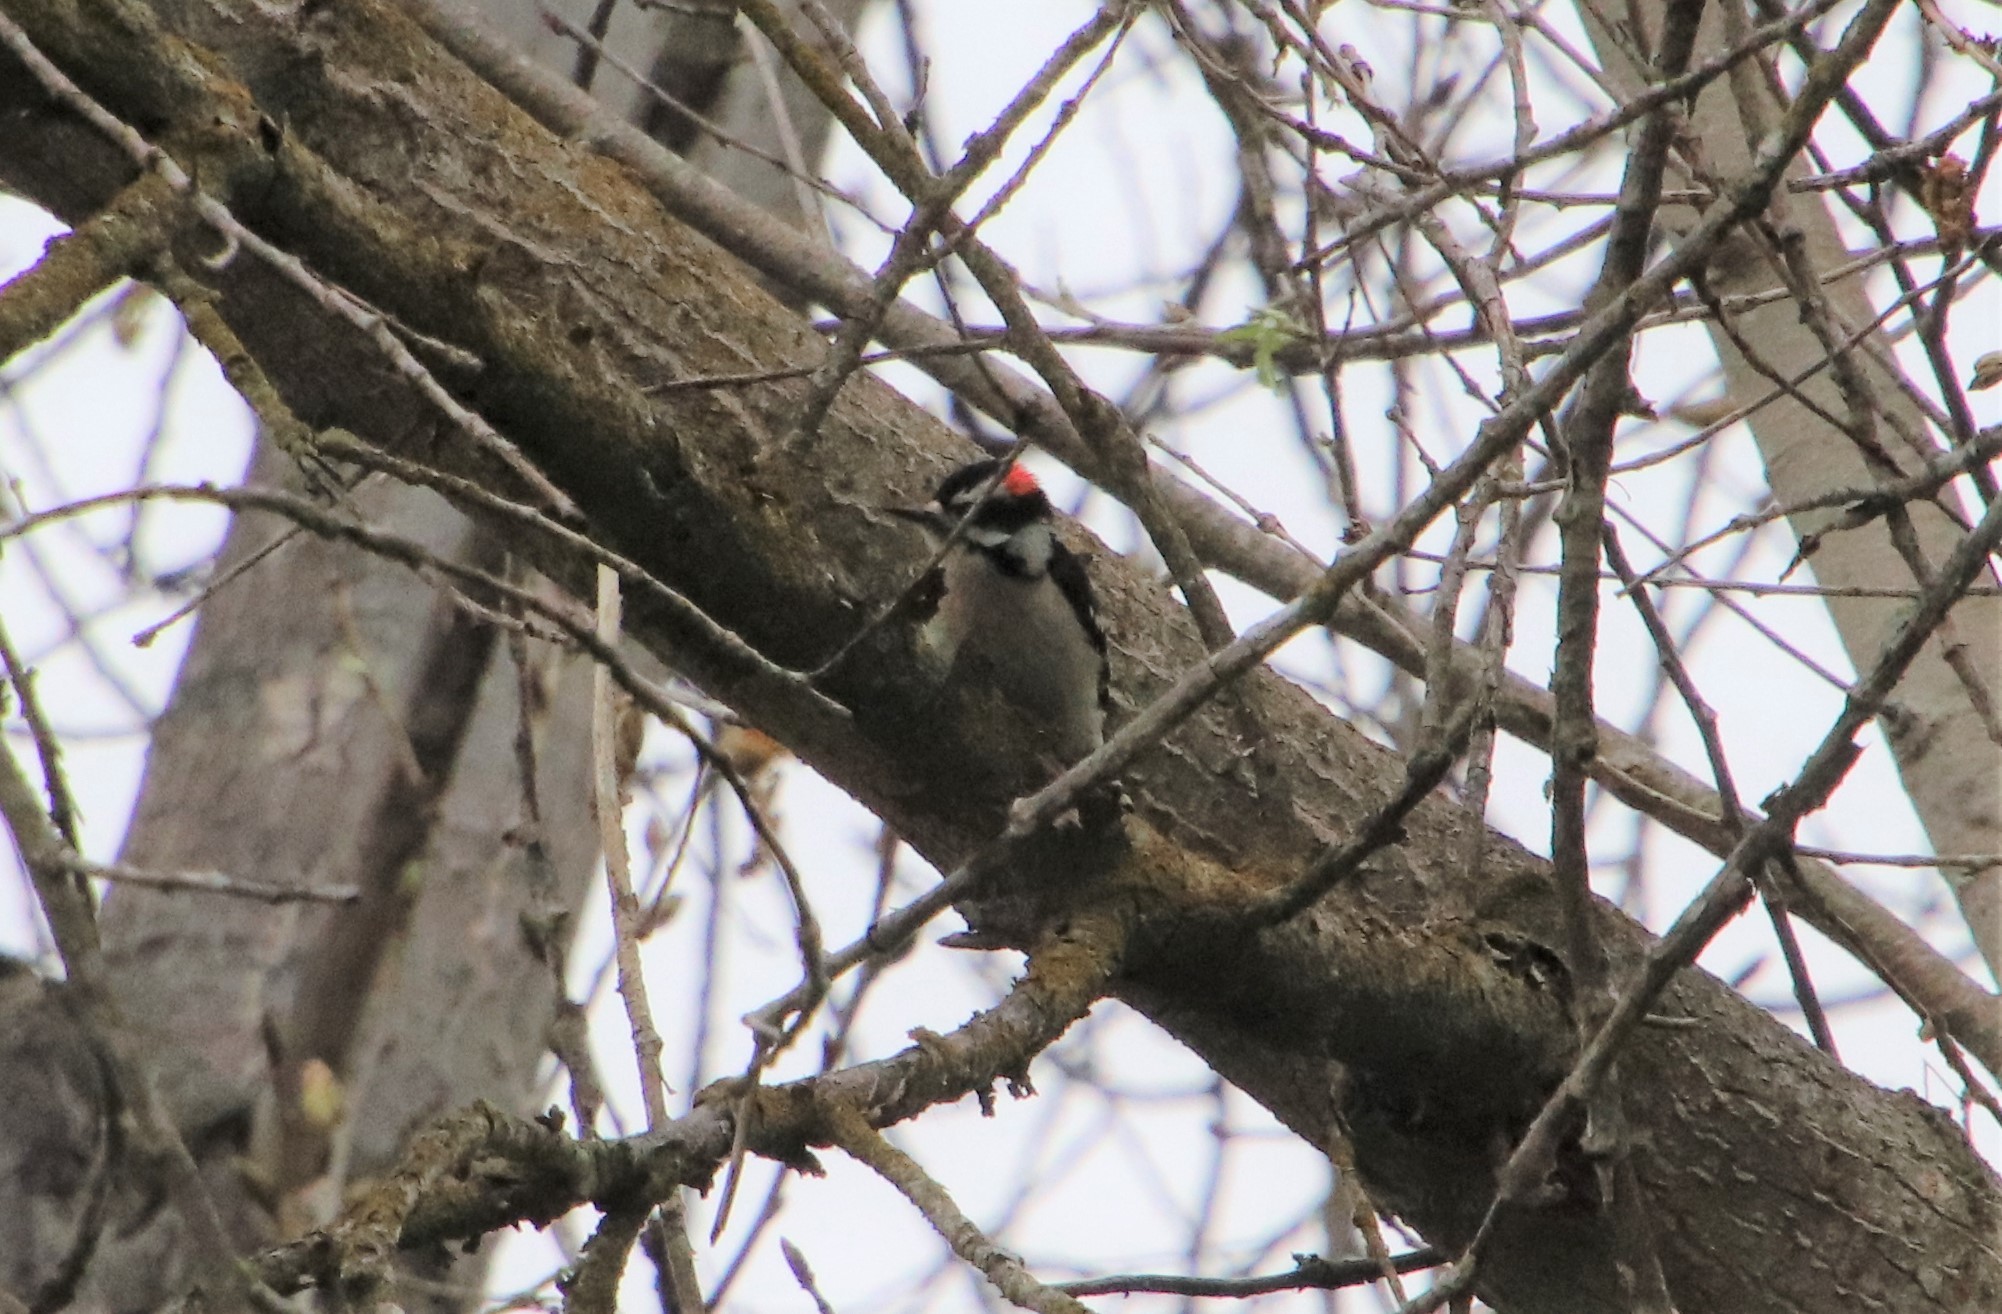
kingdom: Animalia
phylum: Chordata
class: Aves
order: Piciformes
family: Picidae
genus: Dryobates
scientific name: Dryobates pubescens
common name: Downy woodpecker
